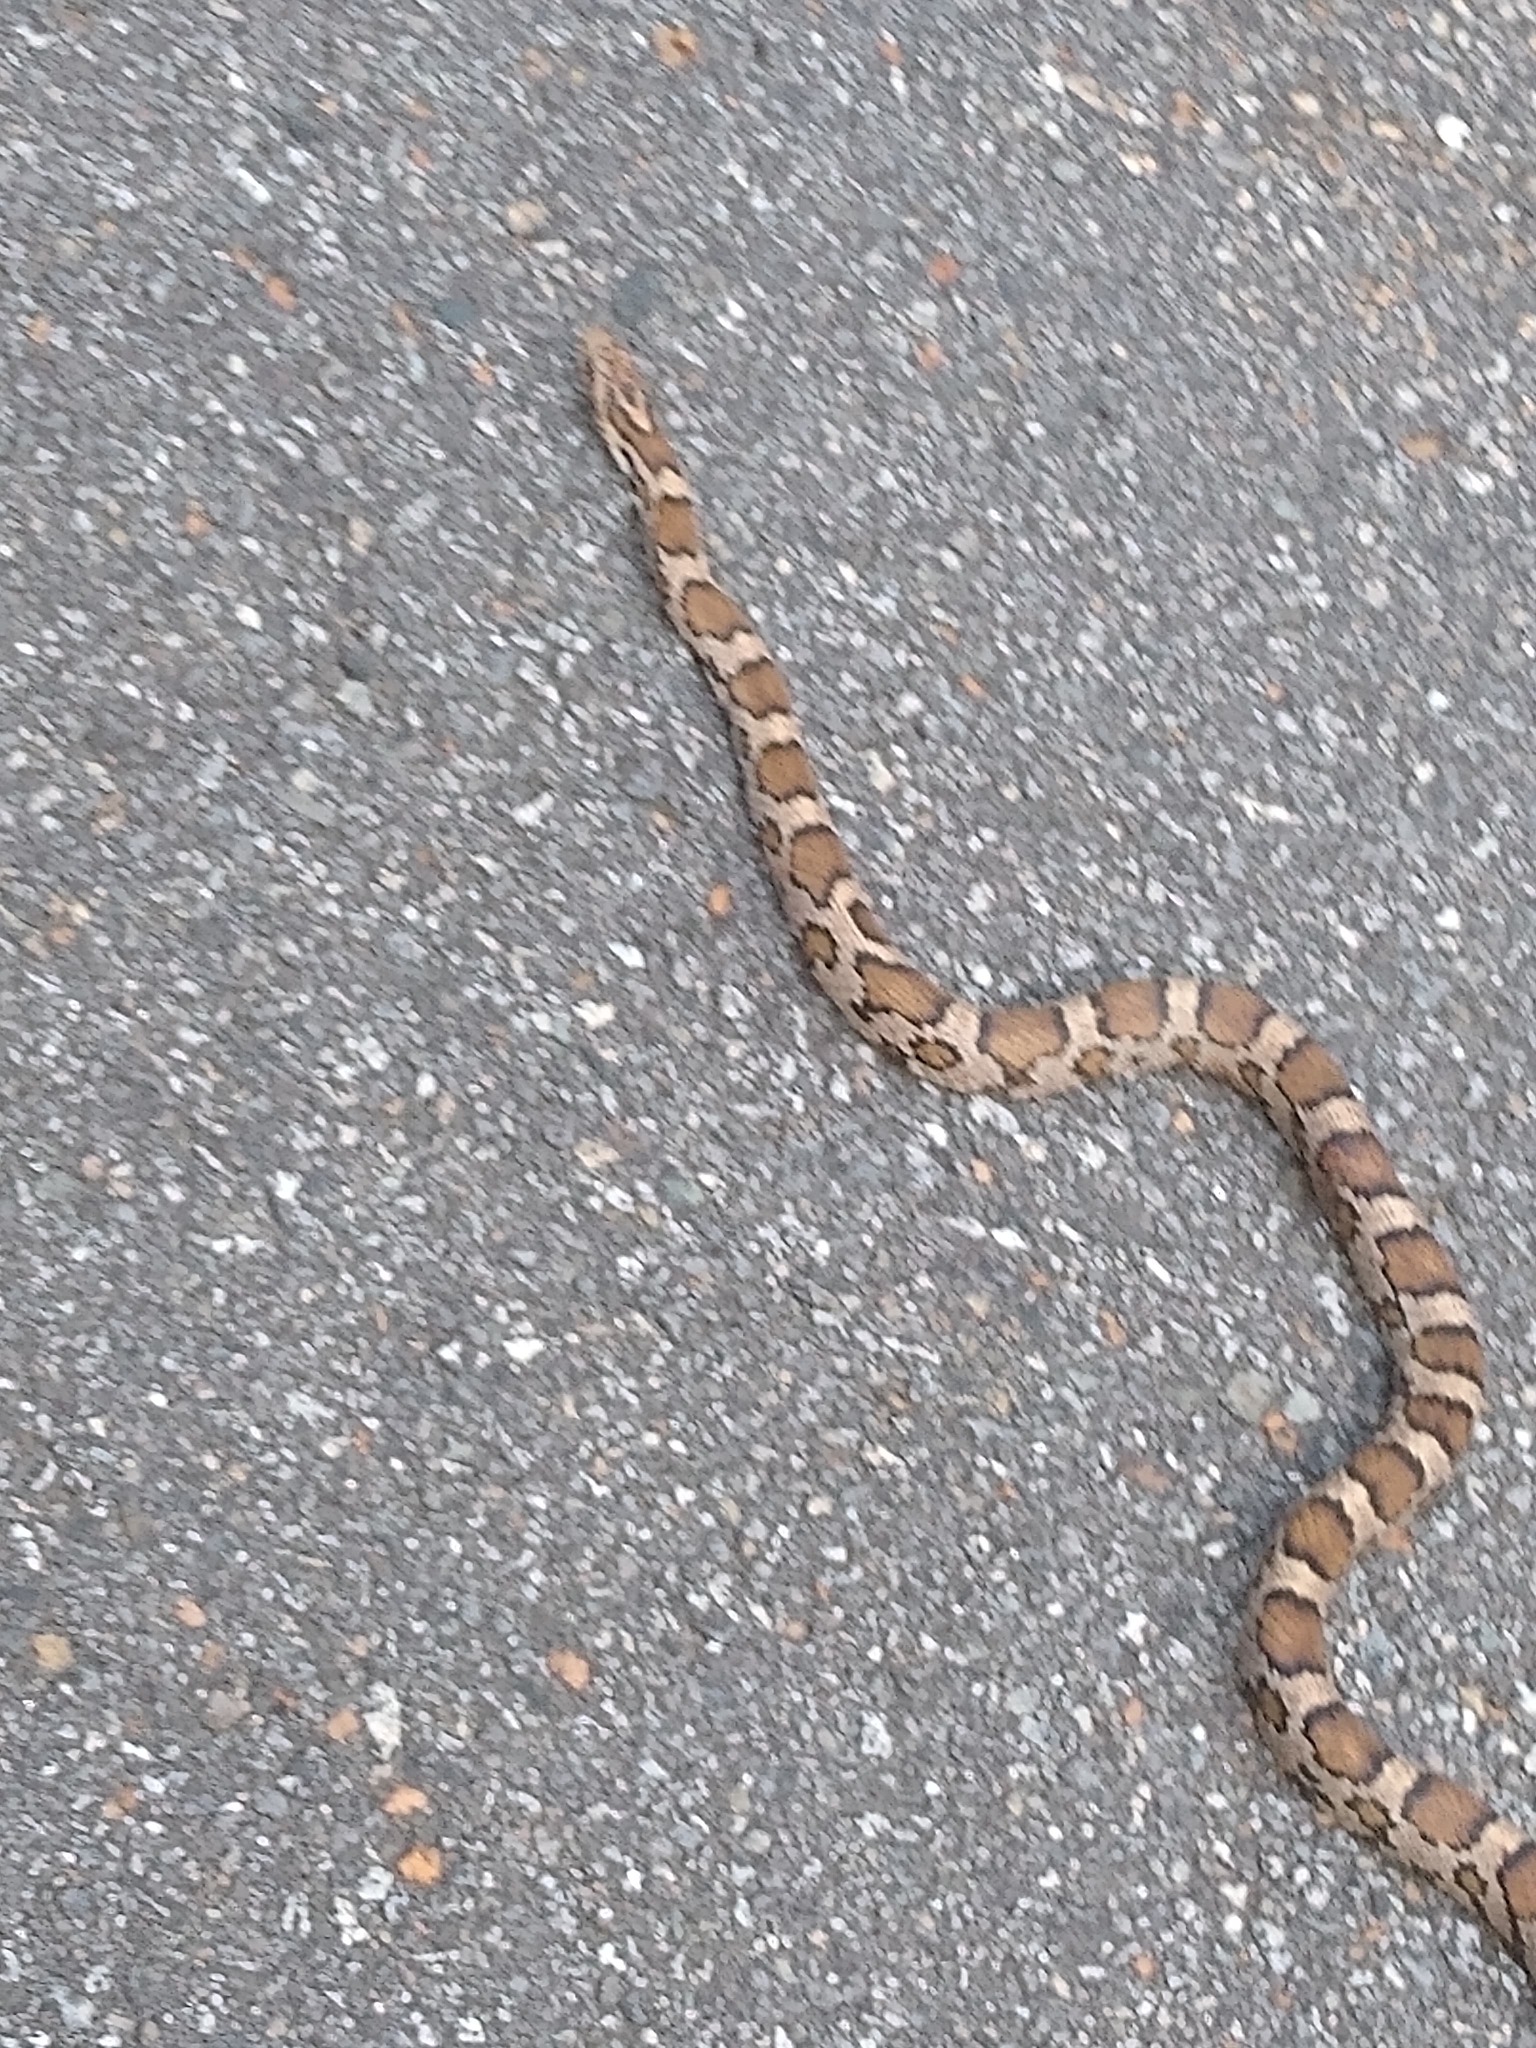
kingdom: Animalia
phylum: Chordata
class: Squamata
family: Colubridae
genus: Lampropeltis
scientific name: Lampropeltis triangulum
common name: Eastern milksnake
